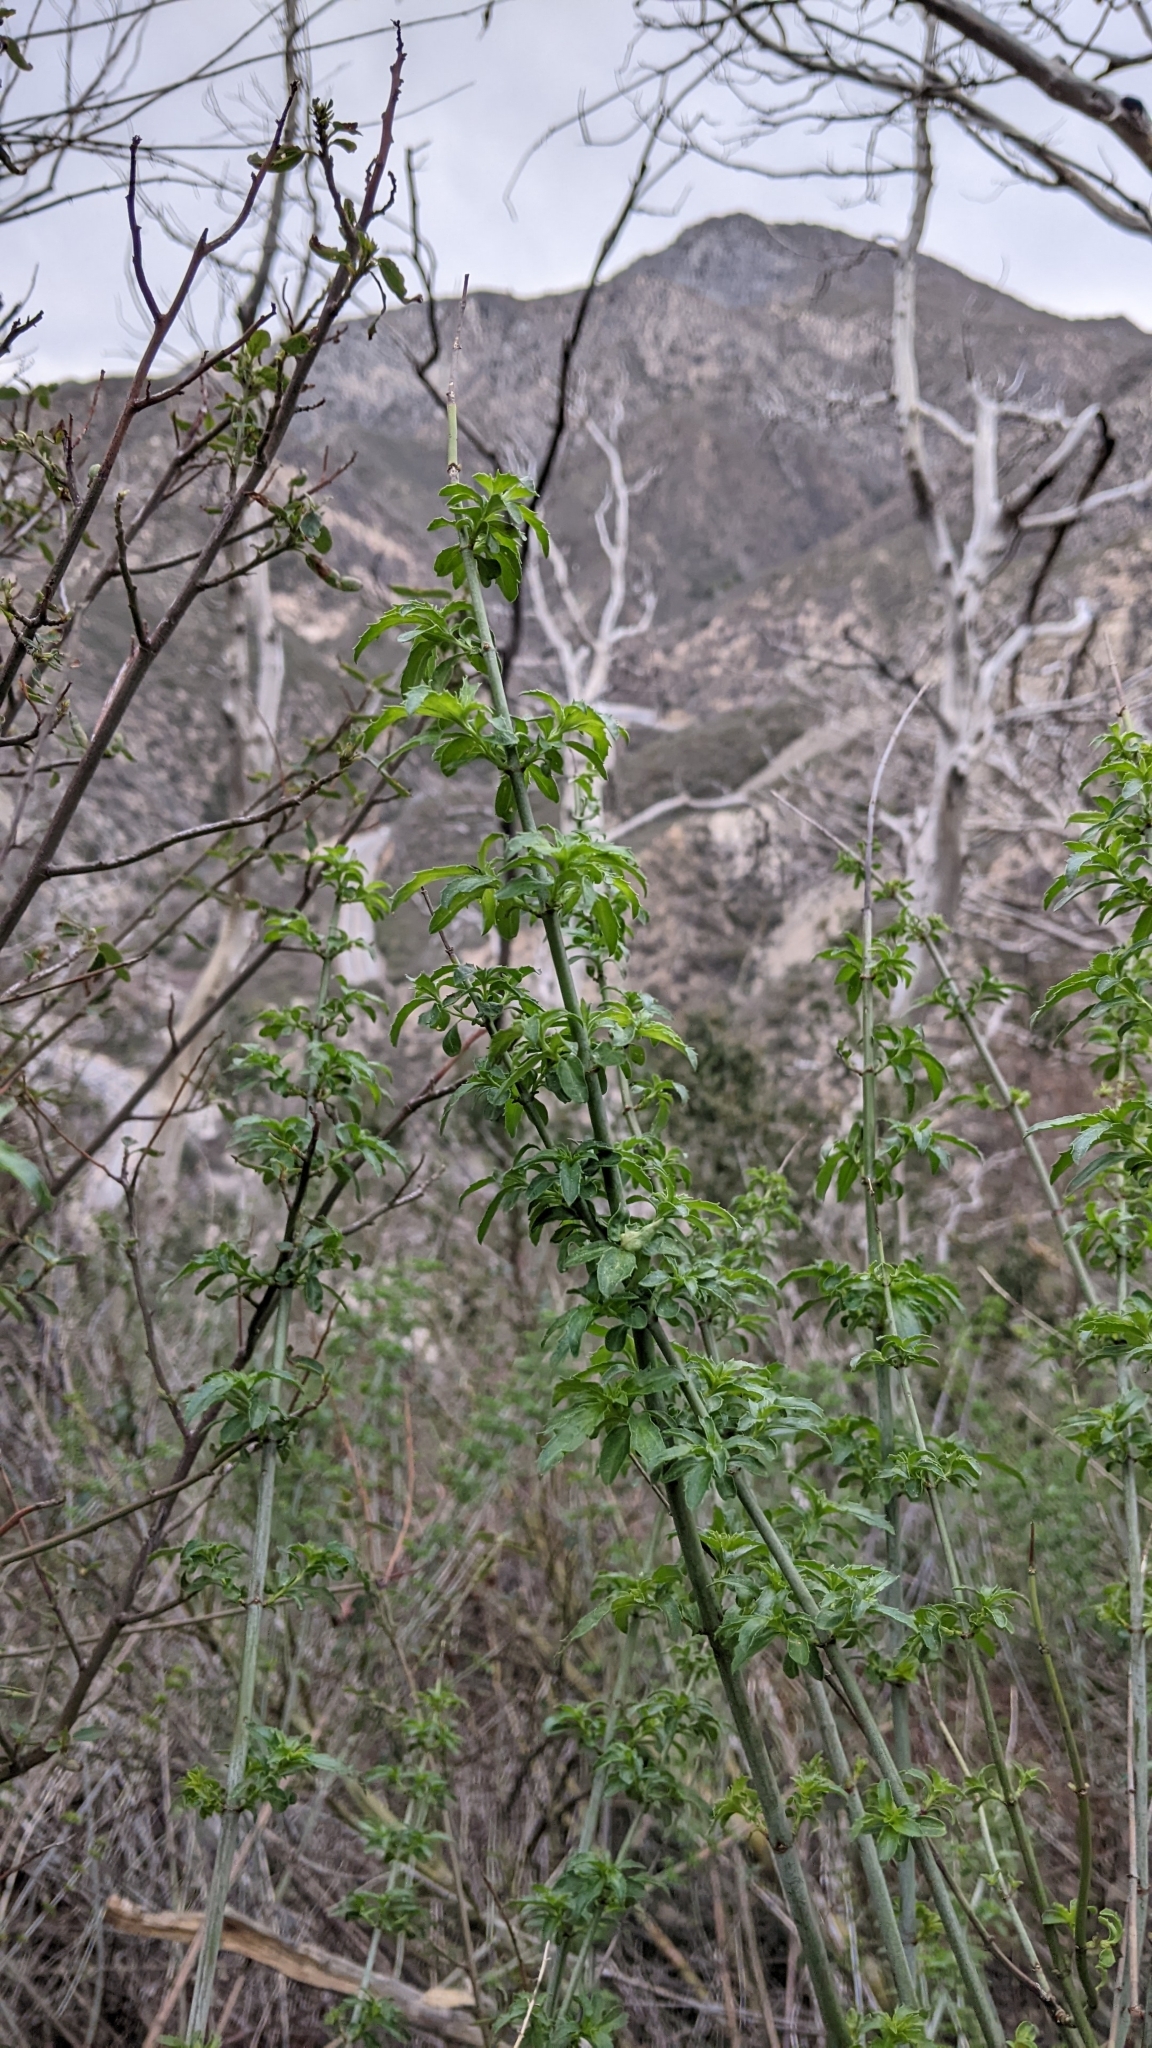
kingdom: Plantae
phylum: Tracheophyta
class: Magnoliopsida
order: Lamiales
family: Plantaginaceae
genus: Keckiella
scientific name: Keckiella ternata
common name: Scarlet keckiella
